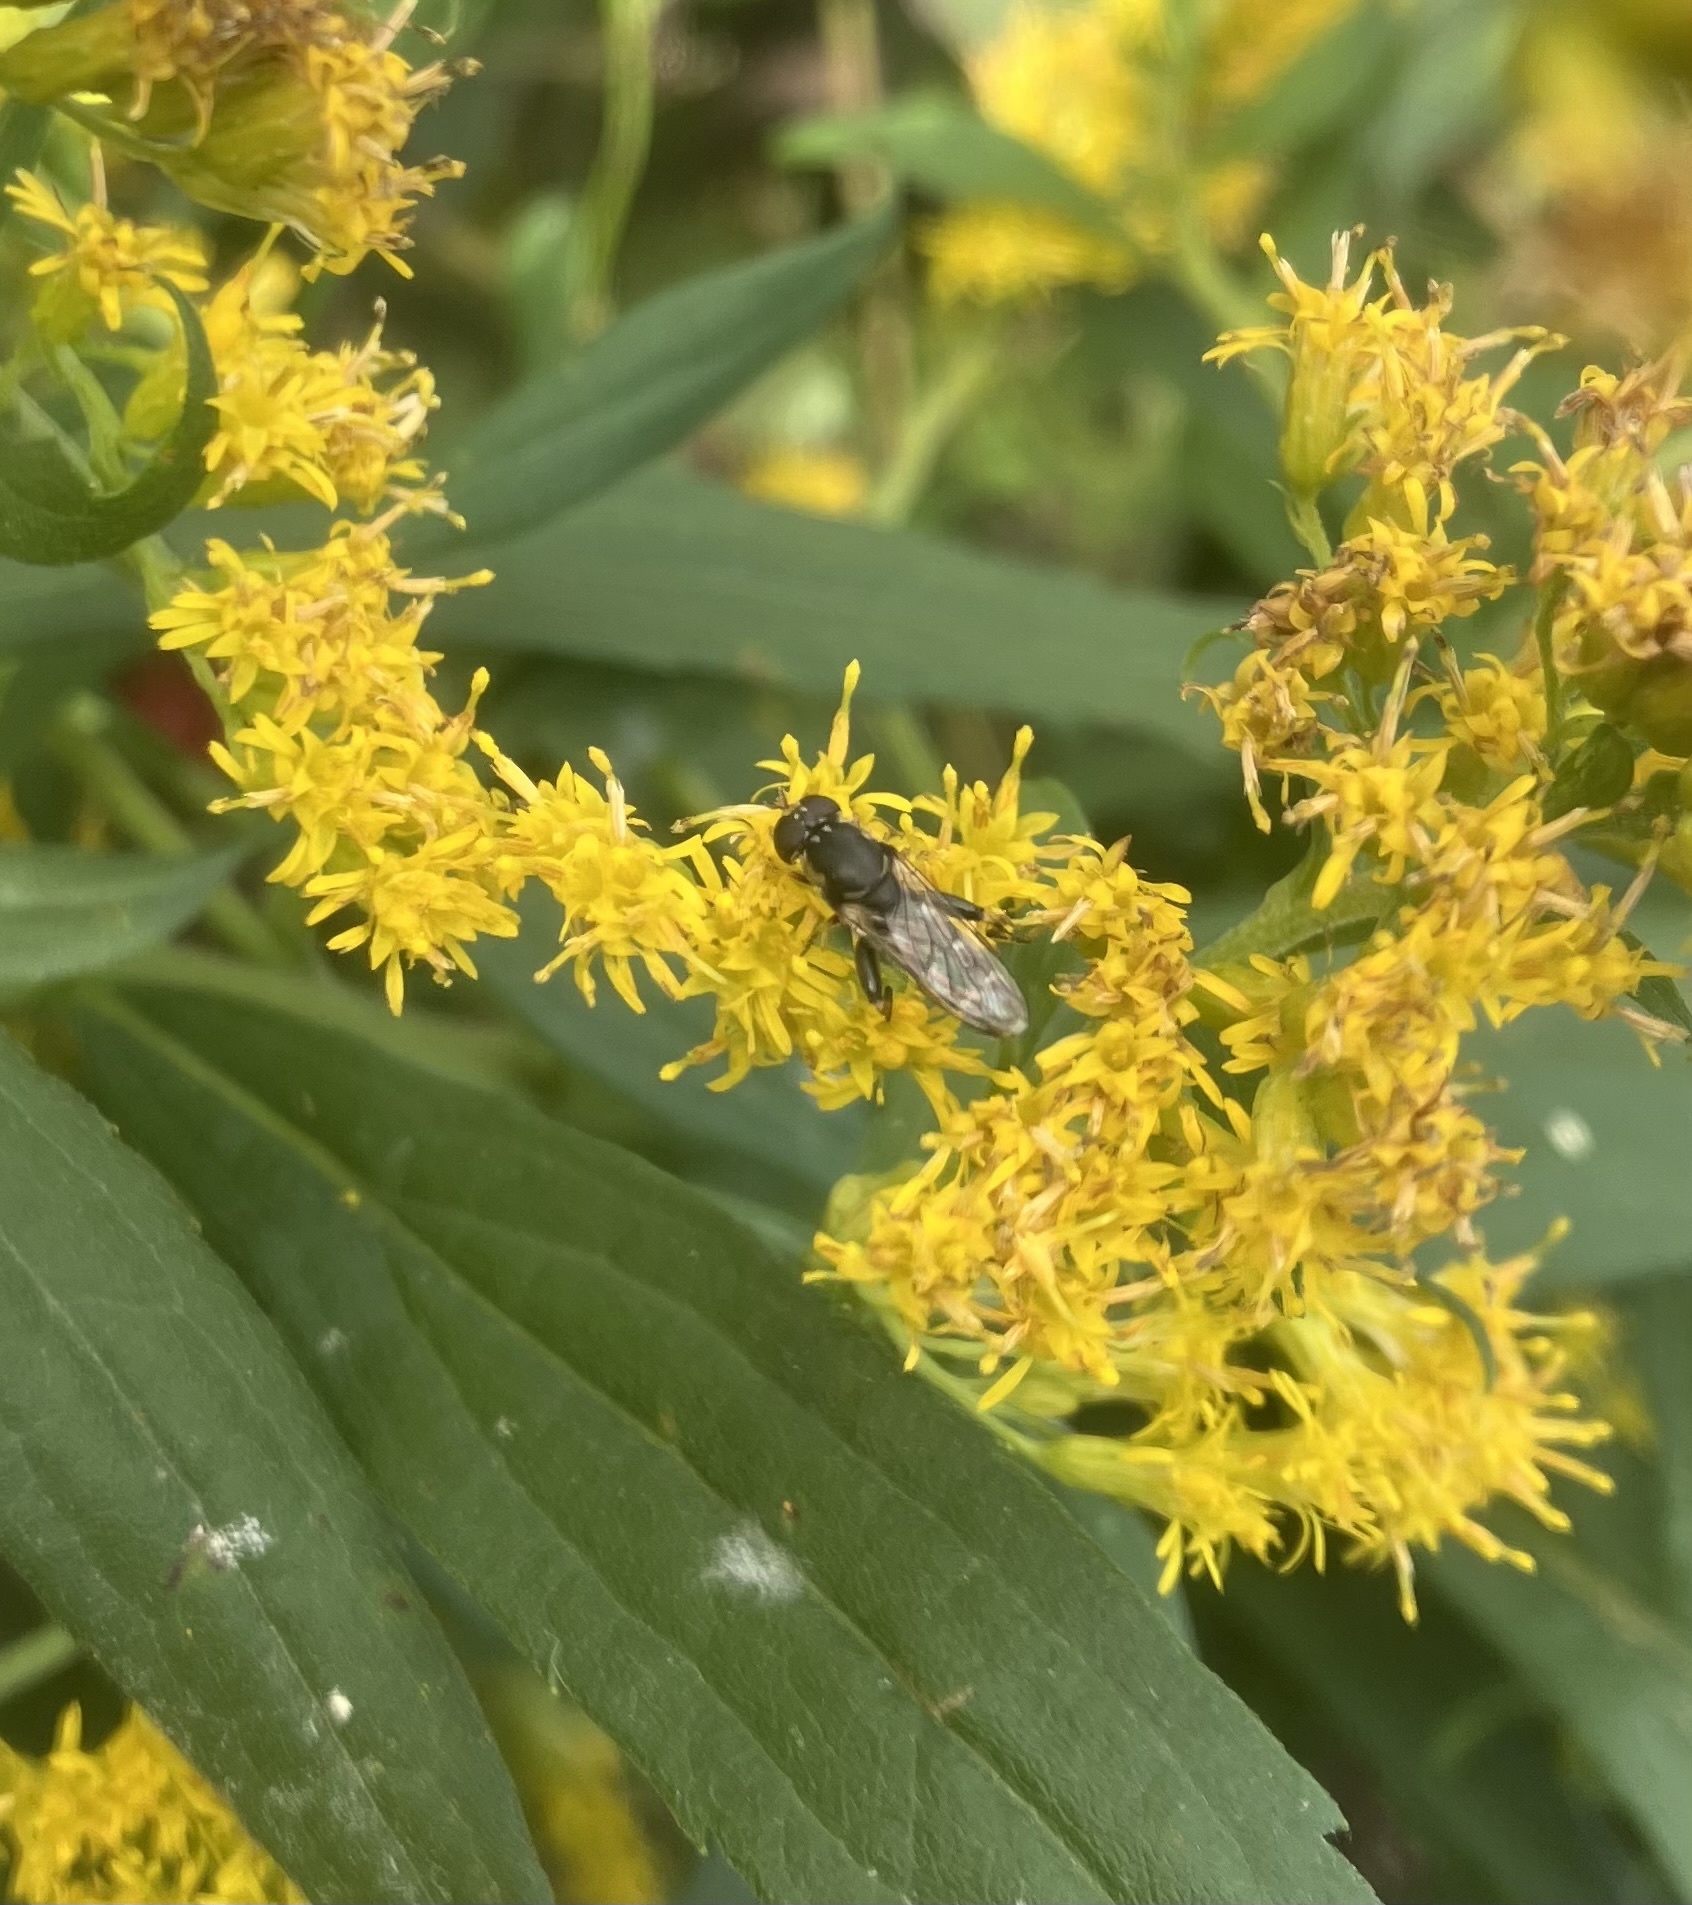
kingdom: Animalia
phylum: Arthropoda
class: Insecta
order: Diptera
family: Syrphidae
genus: Syritta
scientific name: Syritta pipiens
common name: Hover fly
